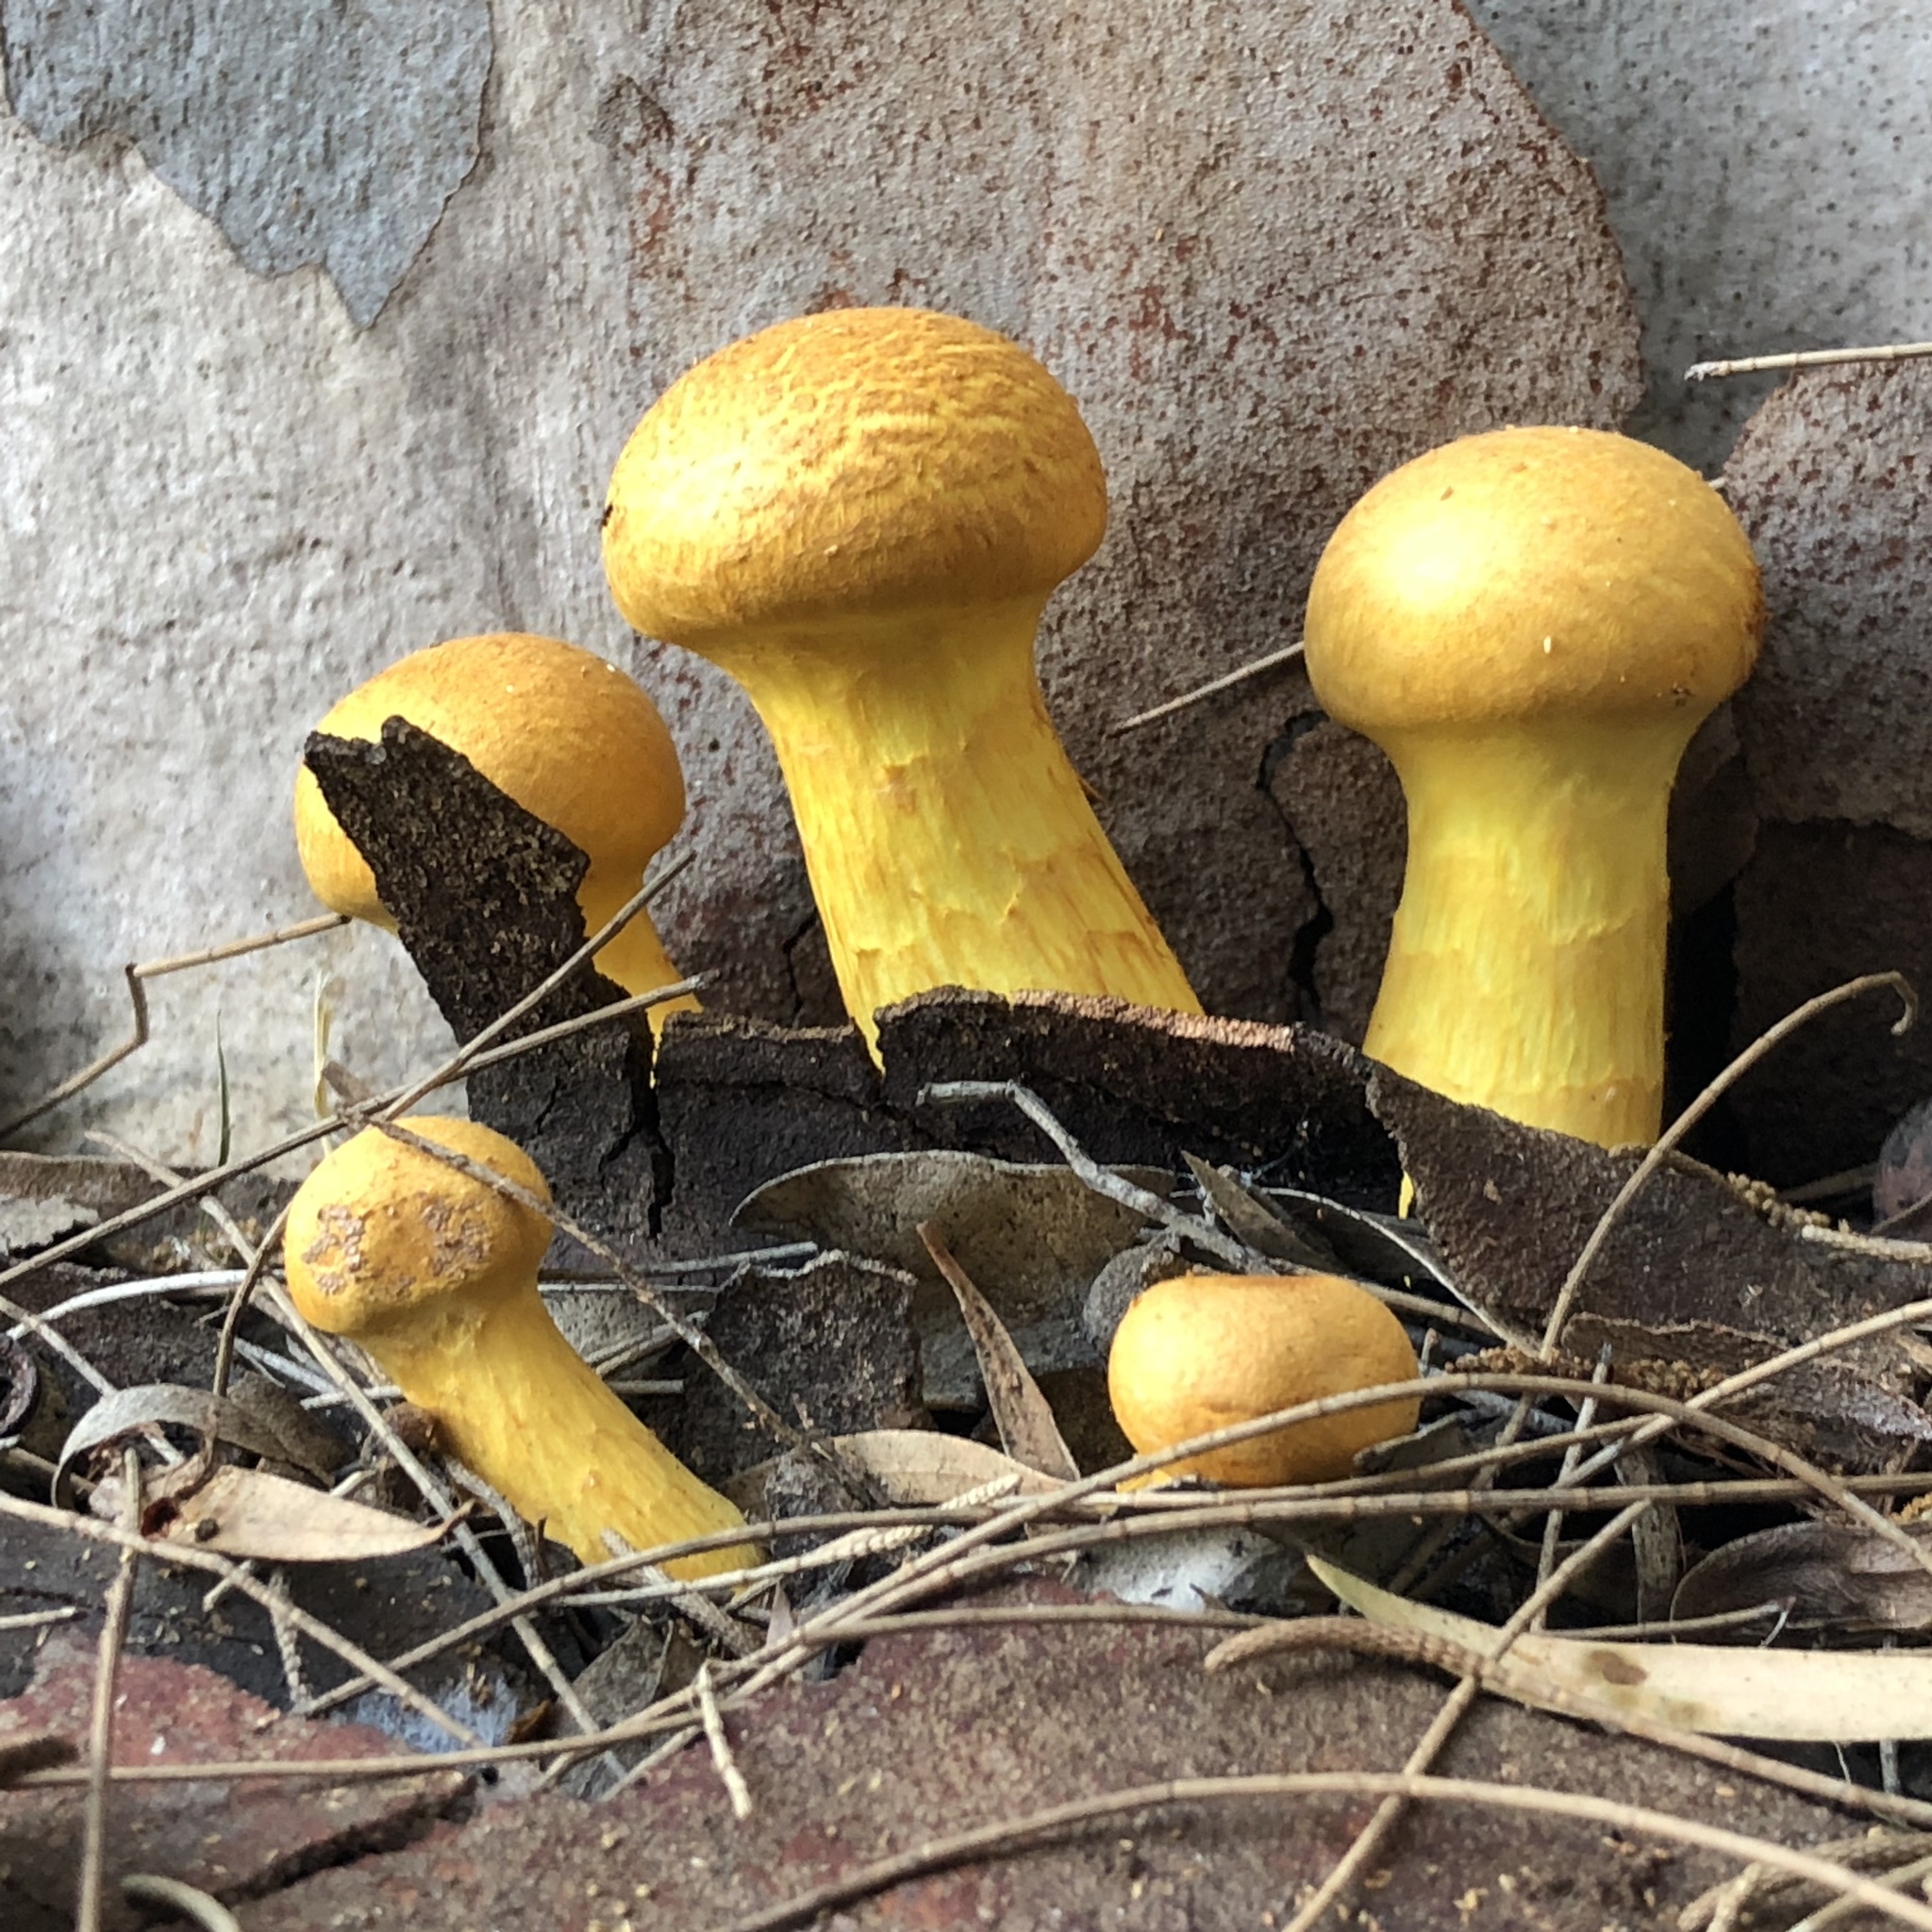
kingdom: Fungi
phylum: Basidiomycota
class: Agaricomycetes
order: Agaricales
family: Hymenogastraceae
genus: Gymnopilus
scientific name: Gymnopilus junonius
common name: Spectacular rustgill
